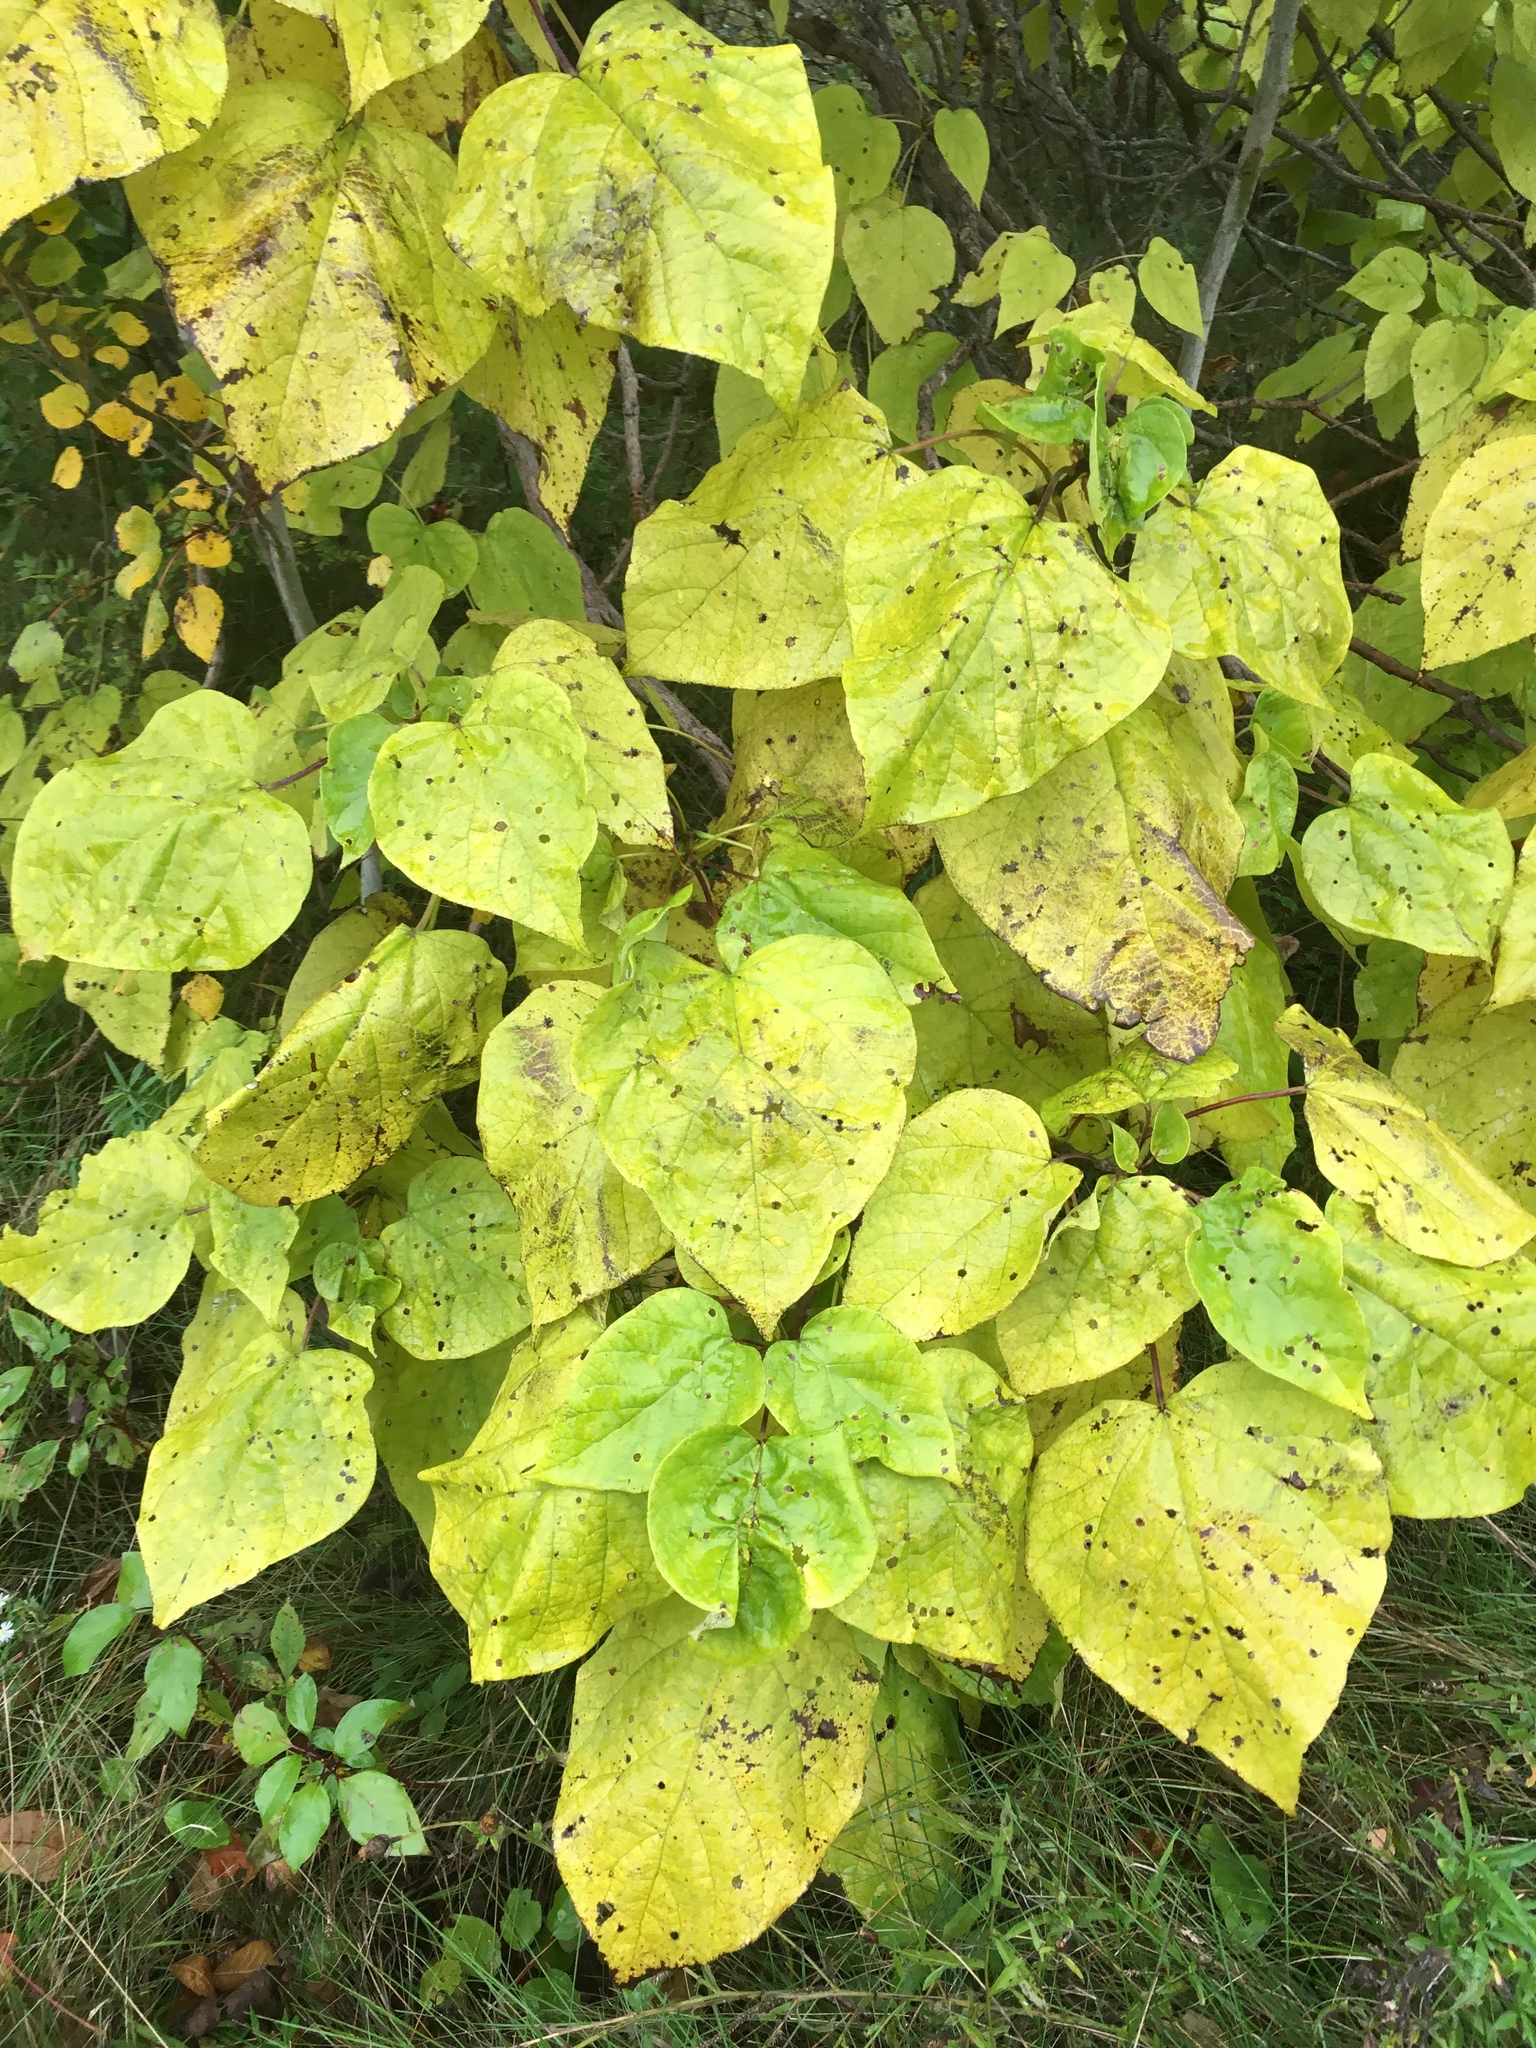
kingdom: Plantae
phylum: Tracheophyta
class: Magnoliopsida
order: Lamiales
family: Bignoniaceae
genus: Catalpa
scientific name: Catalpa speciosa
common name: Northern catalpa
